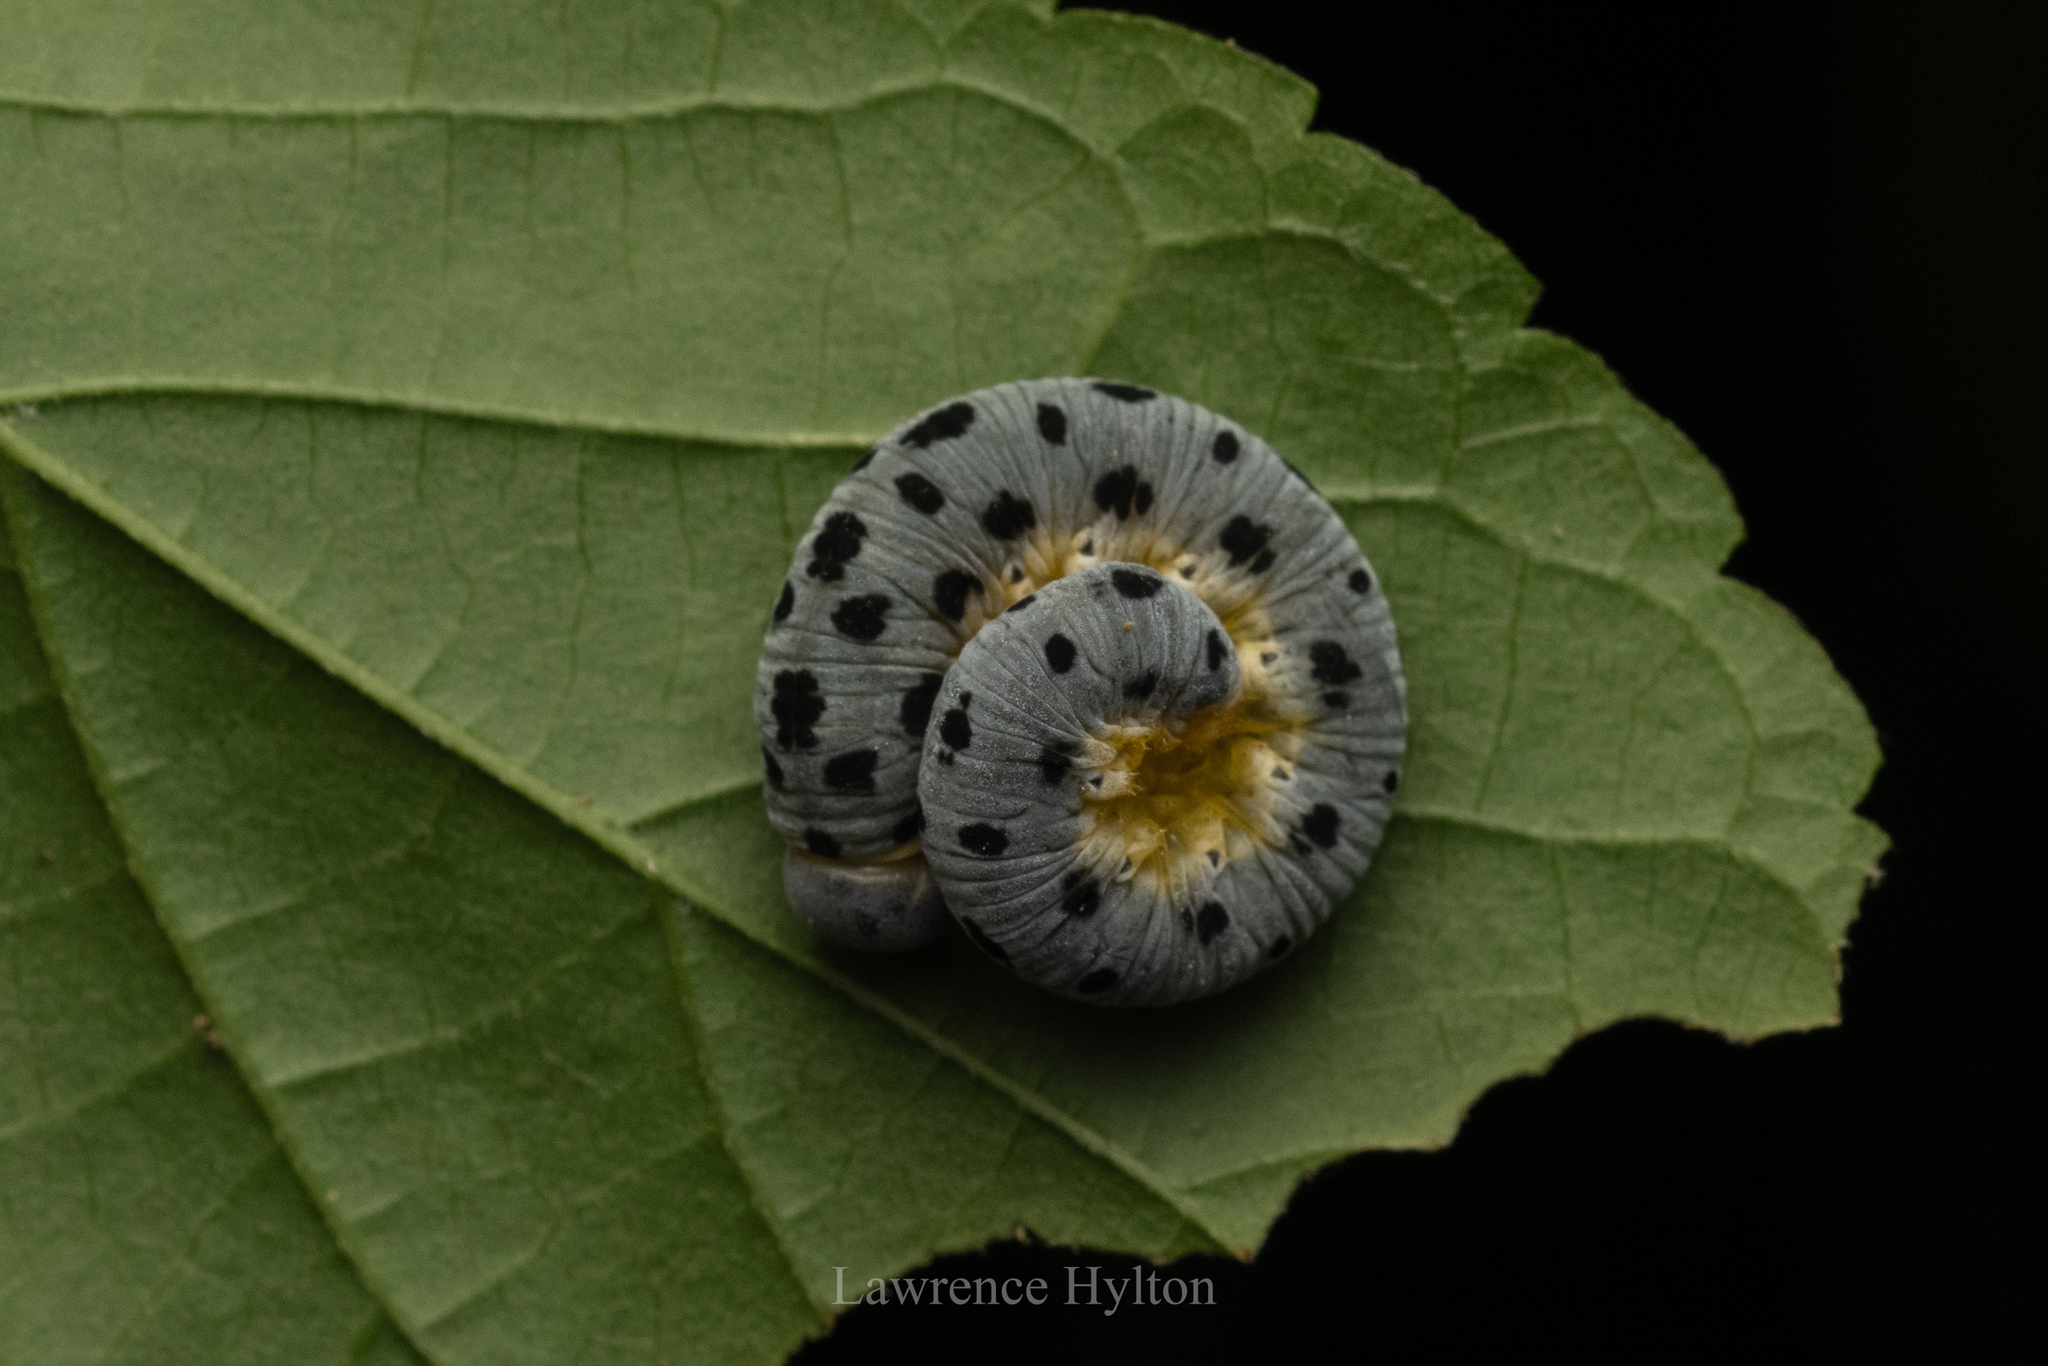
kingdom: Animalia
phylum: Arthropoda
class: Insecta
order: Hymenoptera
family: Cimbicidae
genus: Agenocimbex
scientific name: Agenocimbex
